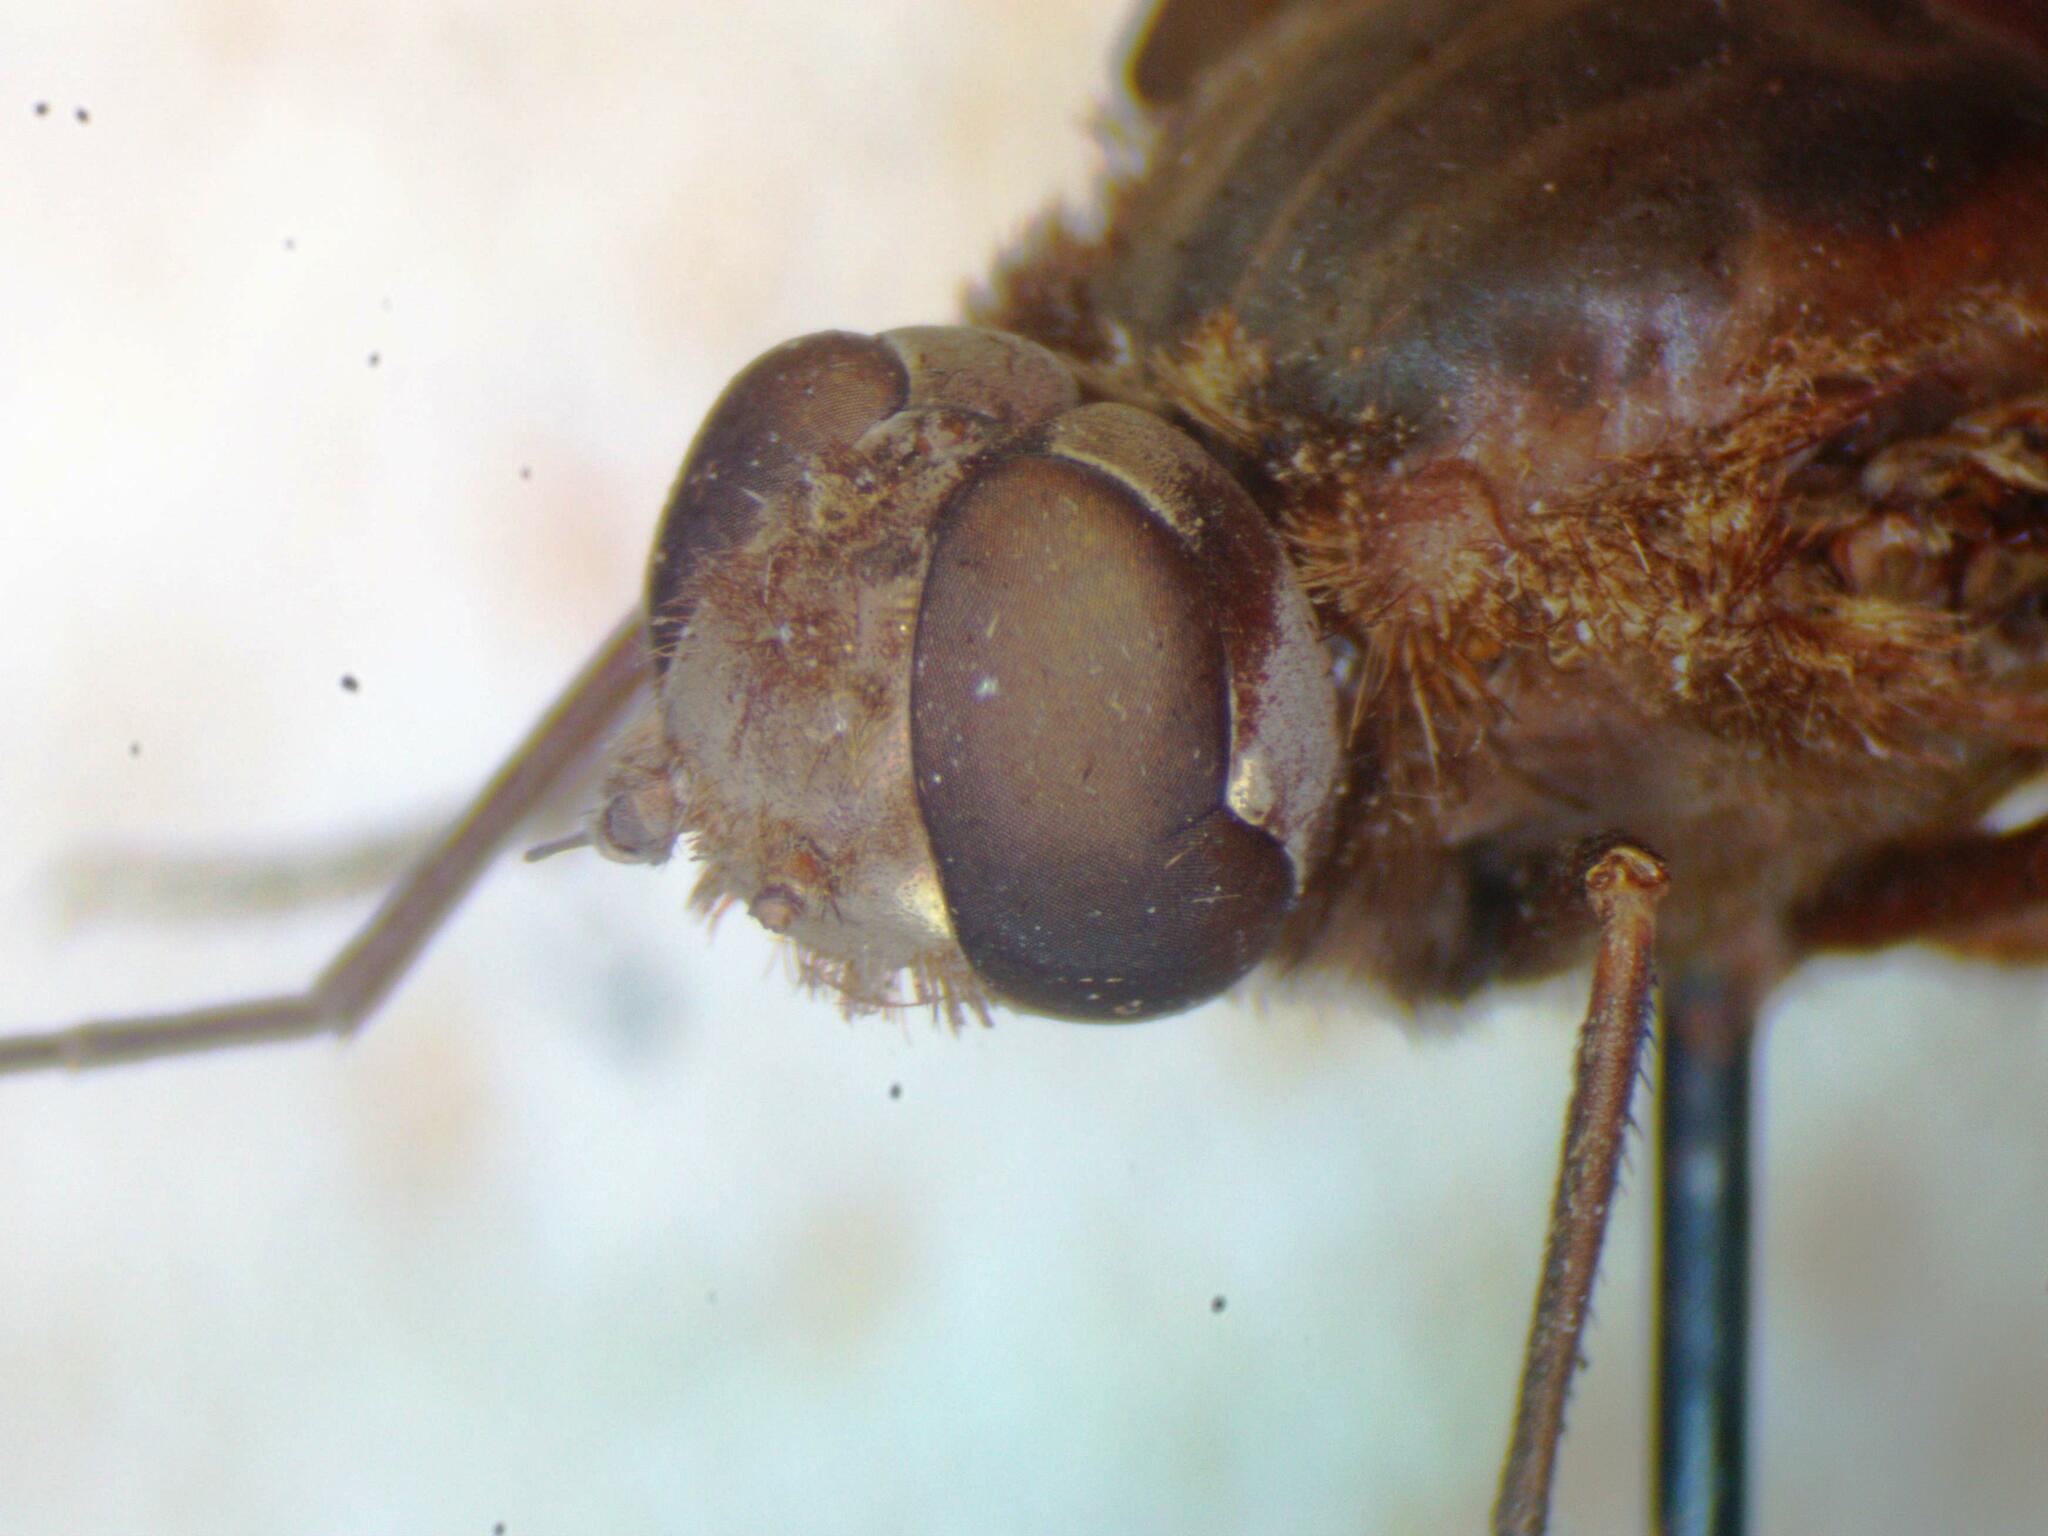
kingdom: Animalia
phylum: Arthropoda
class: Insecta
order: Diptera
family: Bombyliidae
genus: Xenox
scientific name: Xenox habrosus
